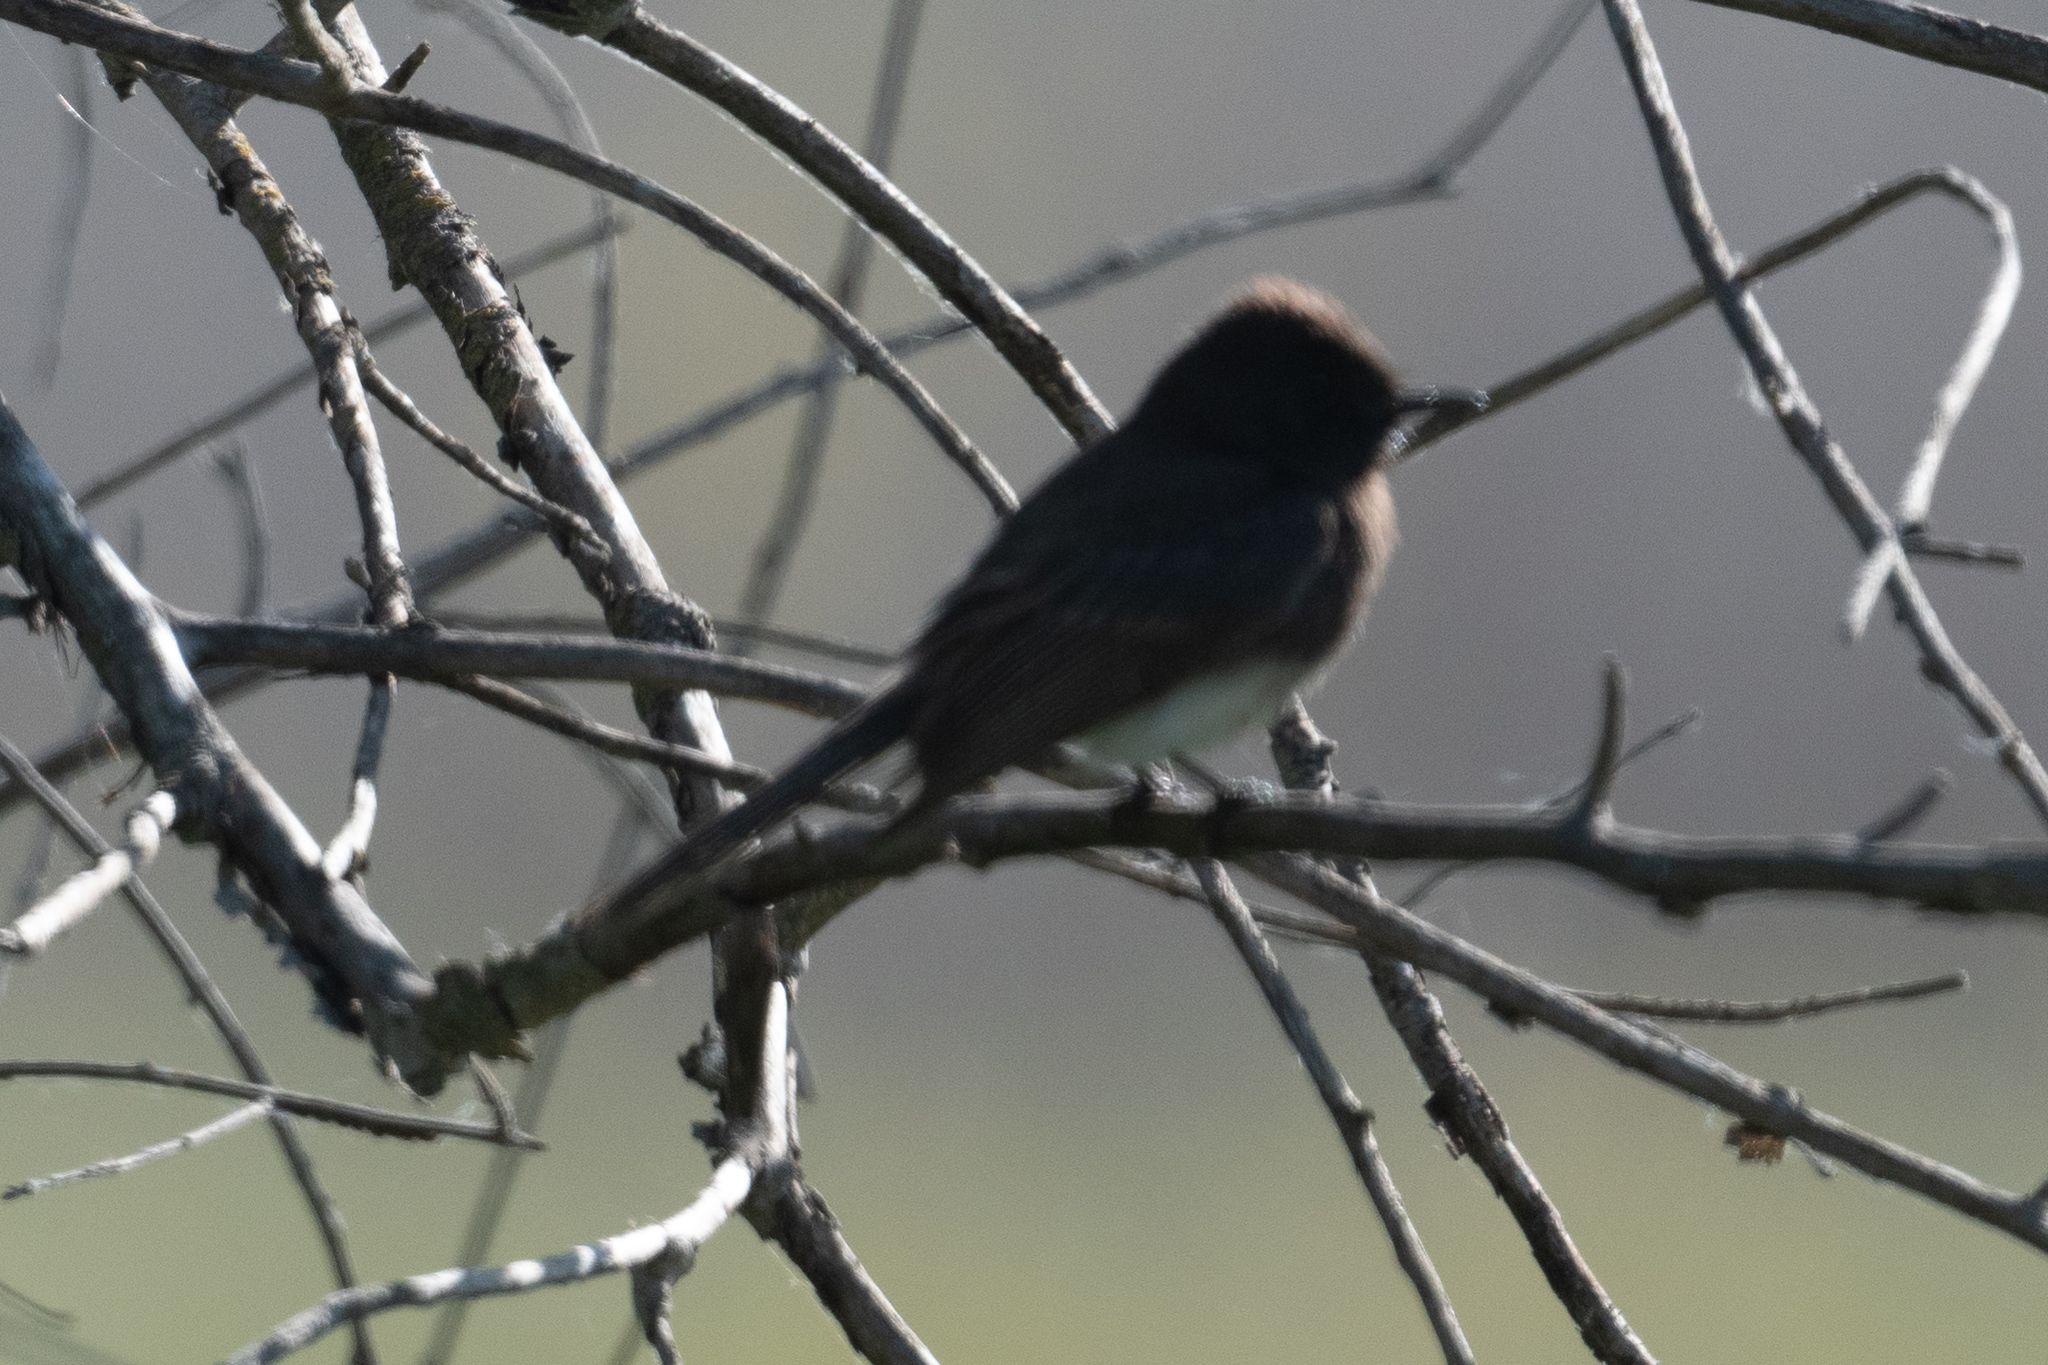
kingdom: Animalia
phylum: Chordata
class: Aves
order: Passeriformes
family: Tyrannidae
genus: Sayornis
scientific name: Sayornis nigricans
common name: Black phoebe
